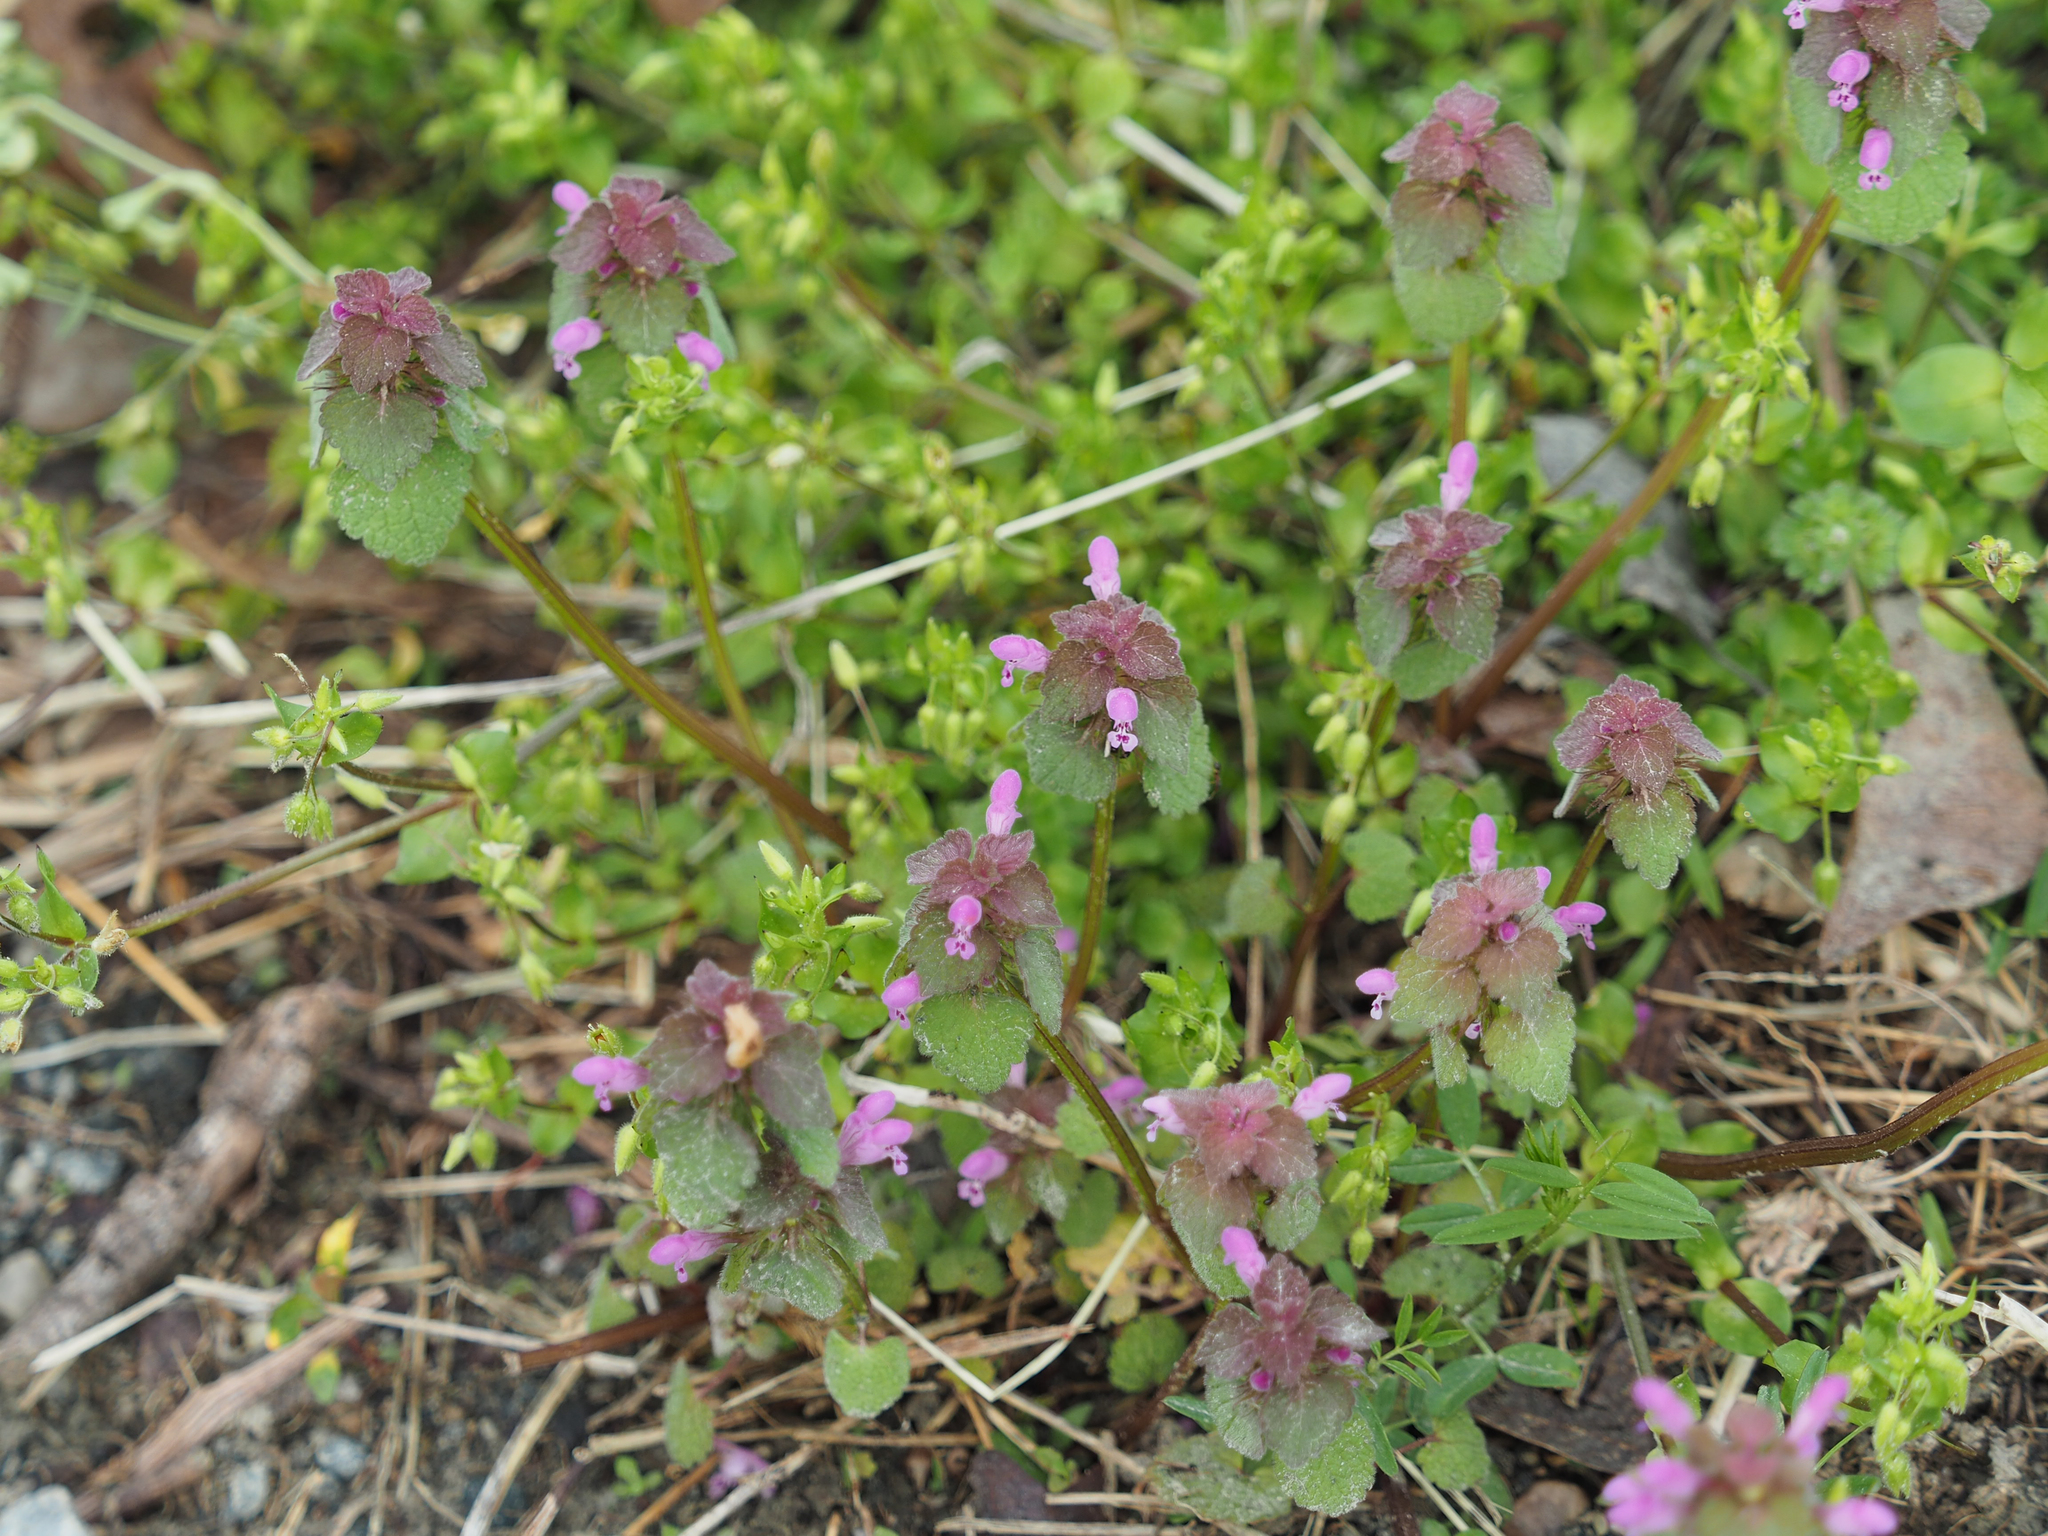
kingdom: Plantae
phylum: Tracheophyta
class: Magnoliopsida
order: Lamiales
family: Lamiaceae
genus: Lamium
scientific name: Lamium purpureum
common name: Red dead-nettle
